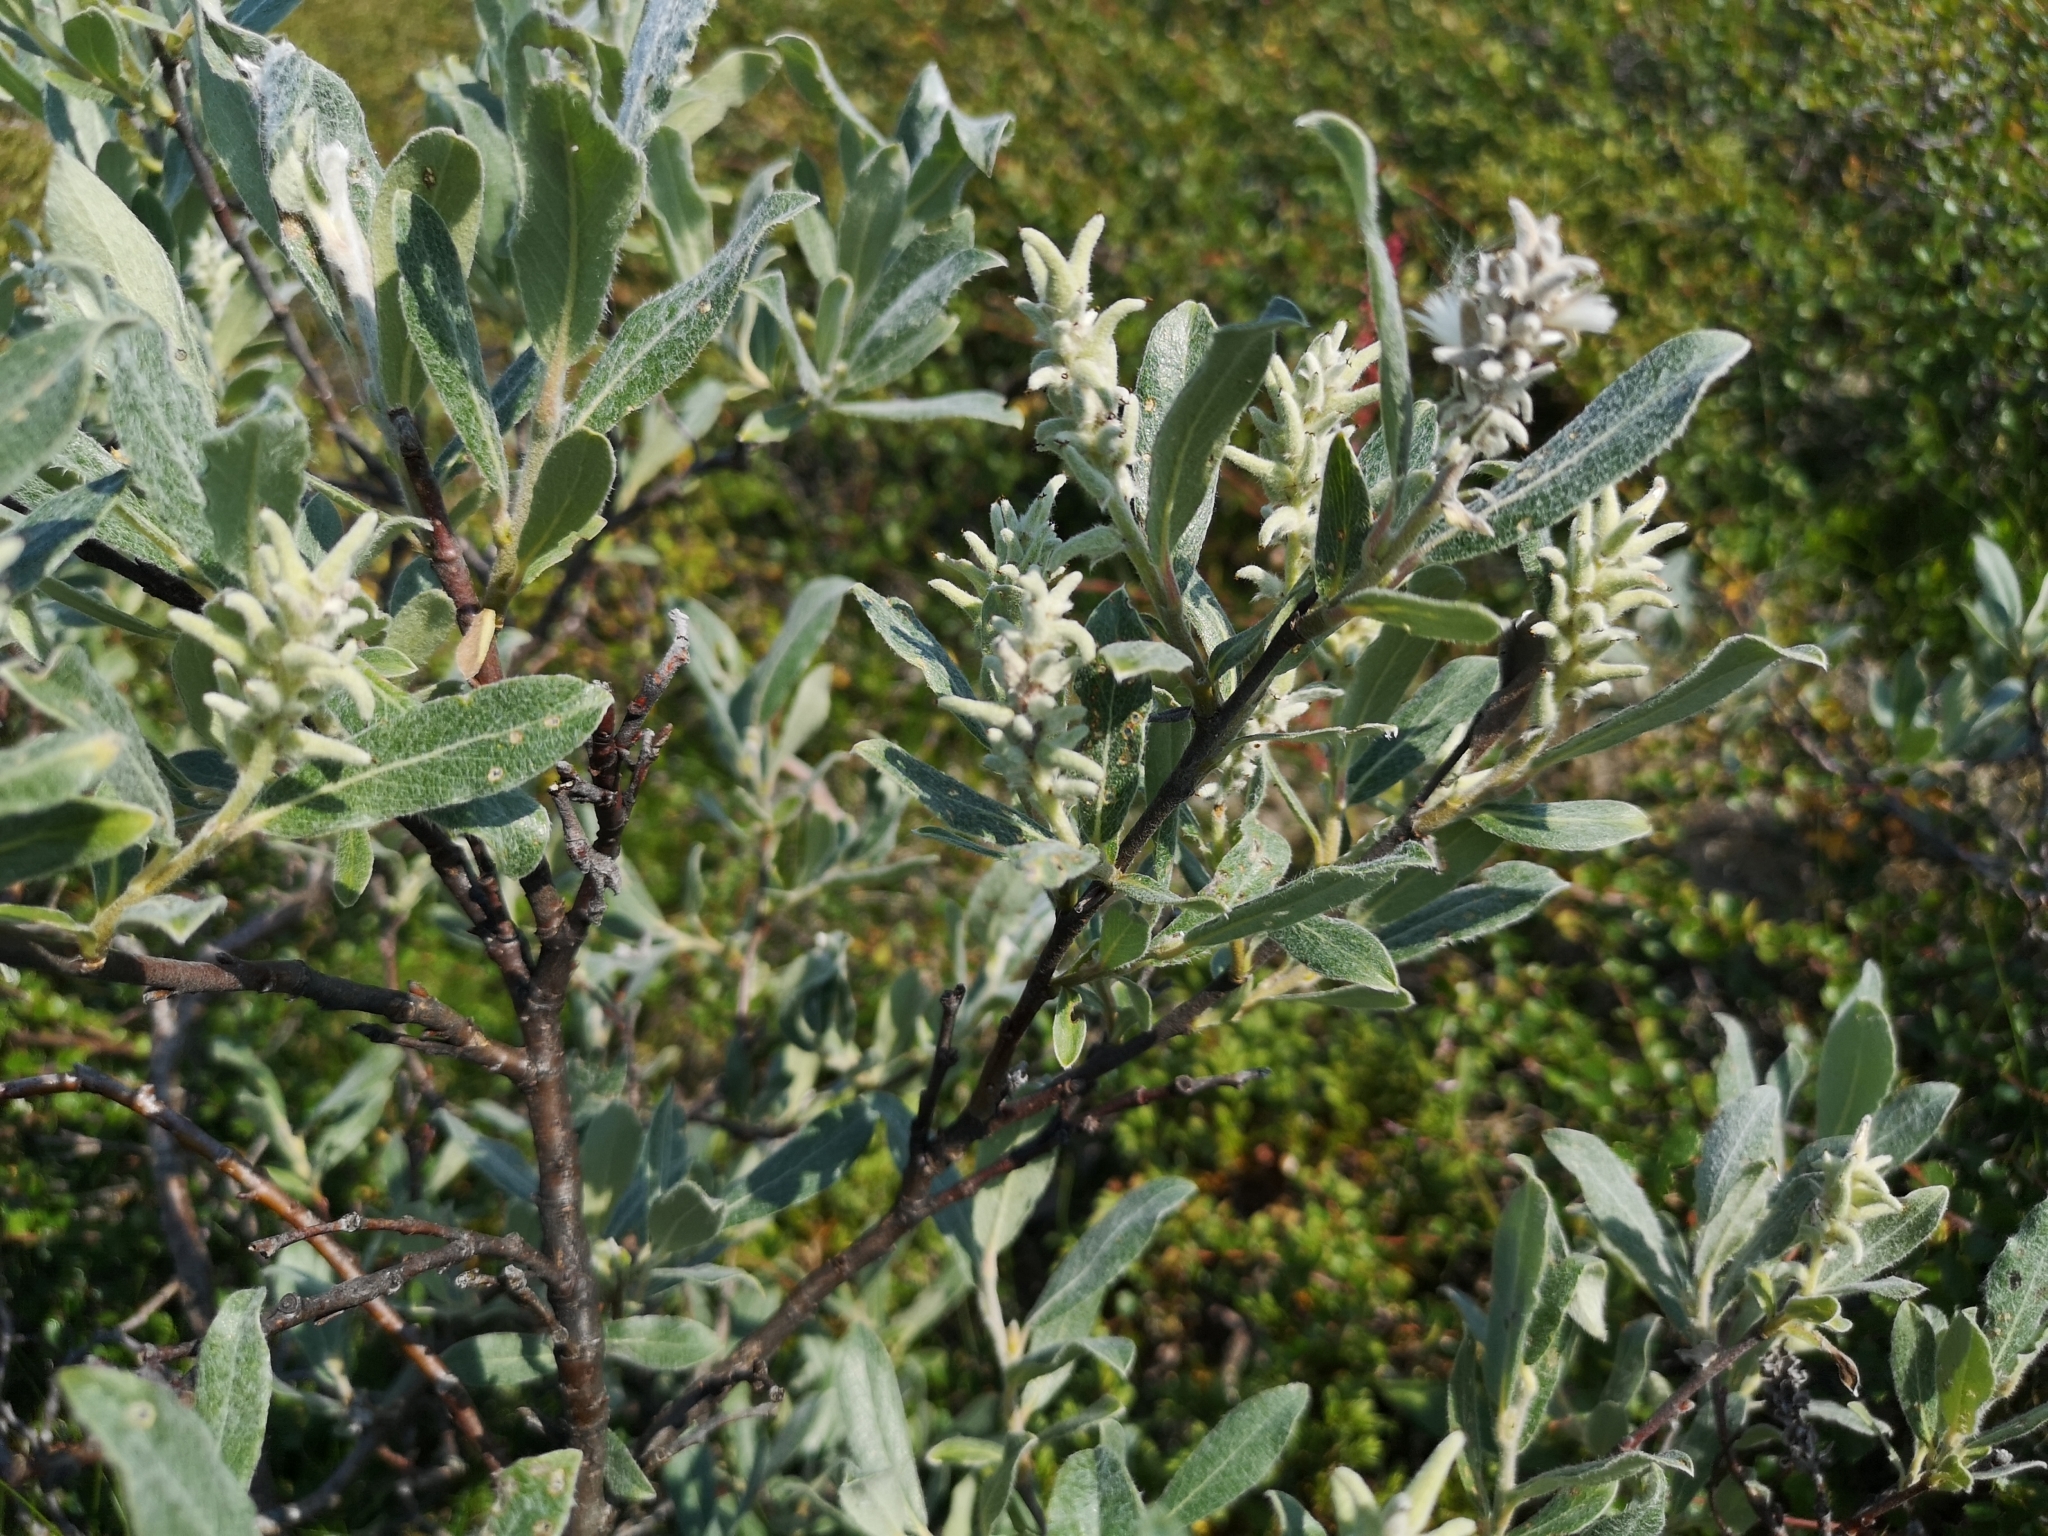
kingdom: Plantae
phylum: Tracheophyta
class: Magnoliopsida
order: Malpighiales
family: Salicaceae
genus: Salix
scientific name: Salix glauca
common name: Glaucous willow
